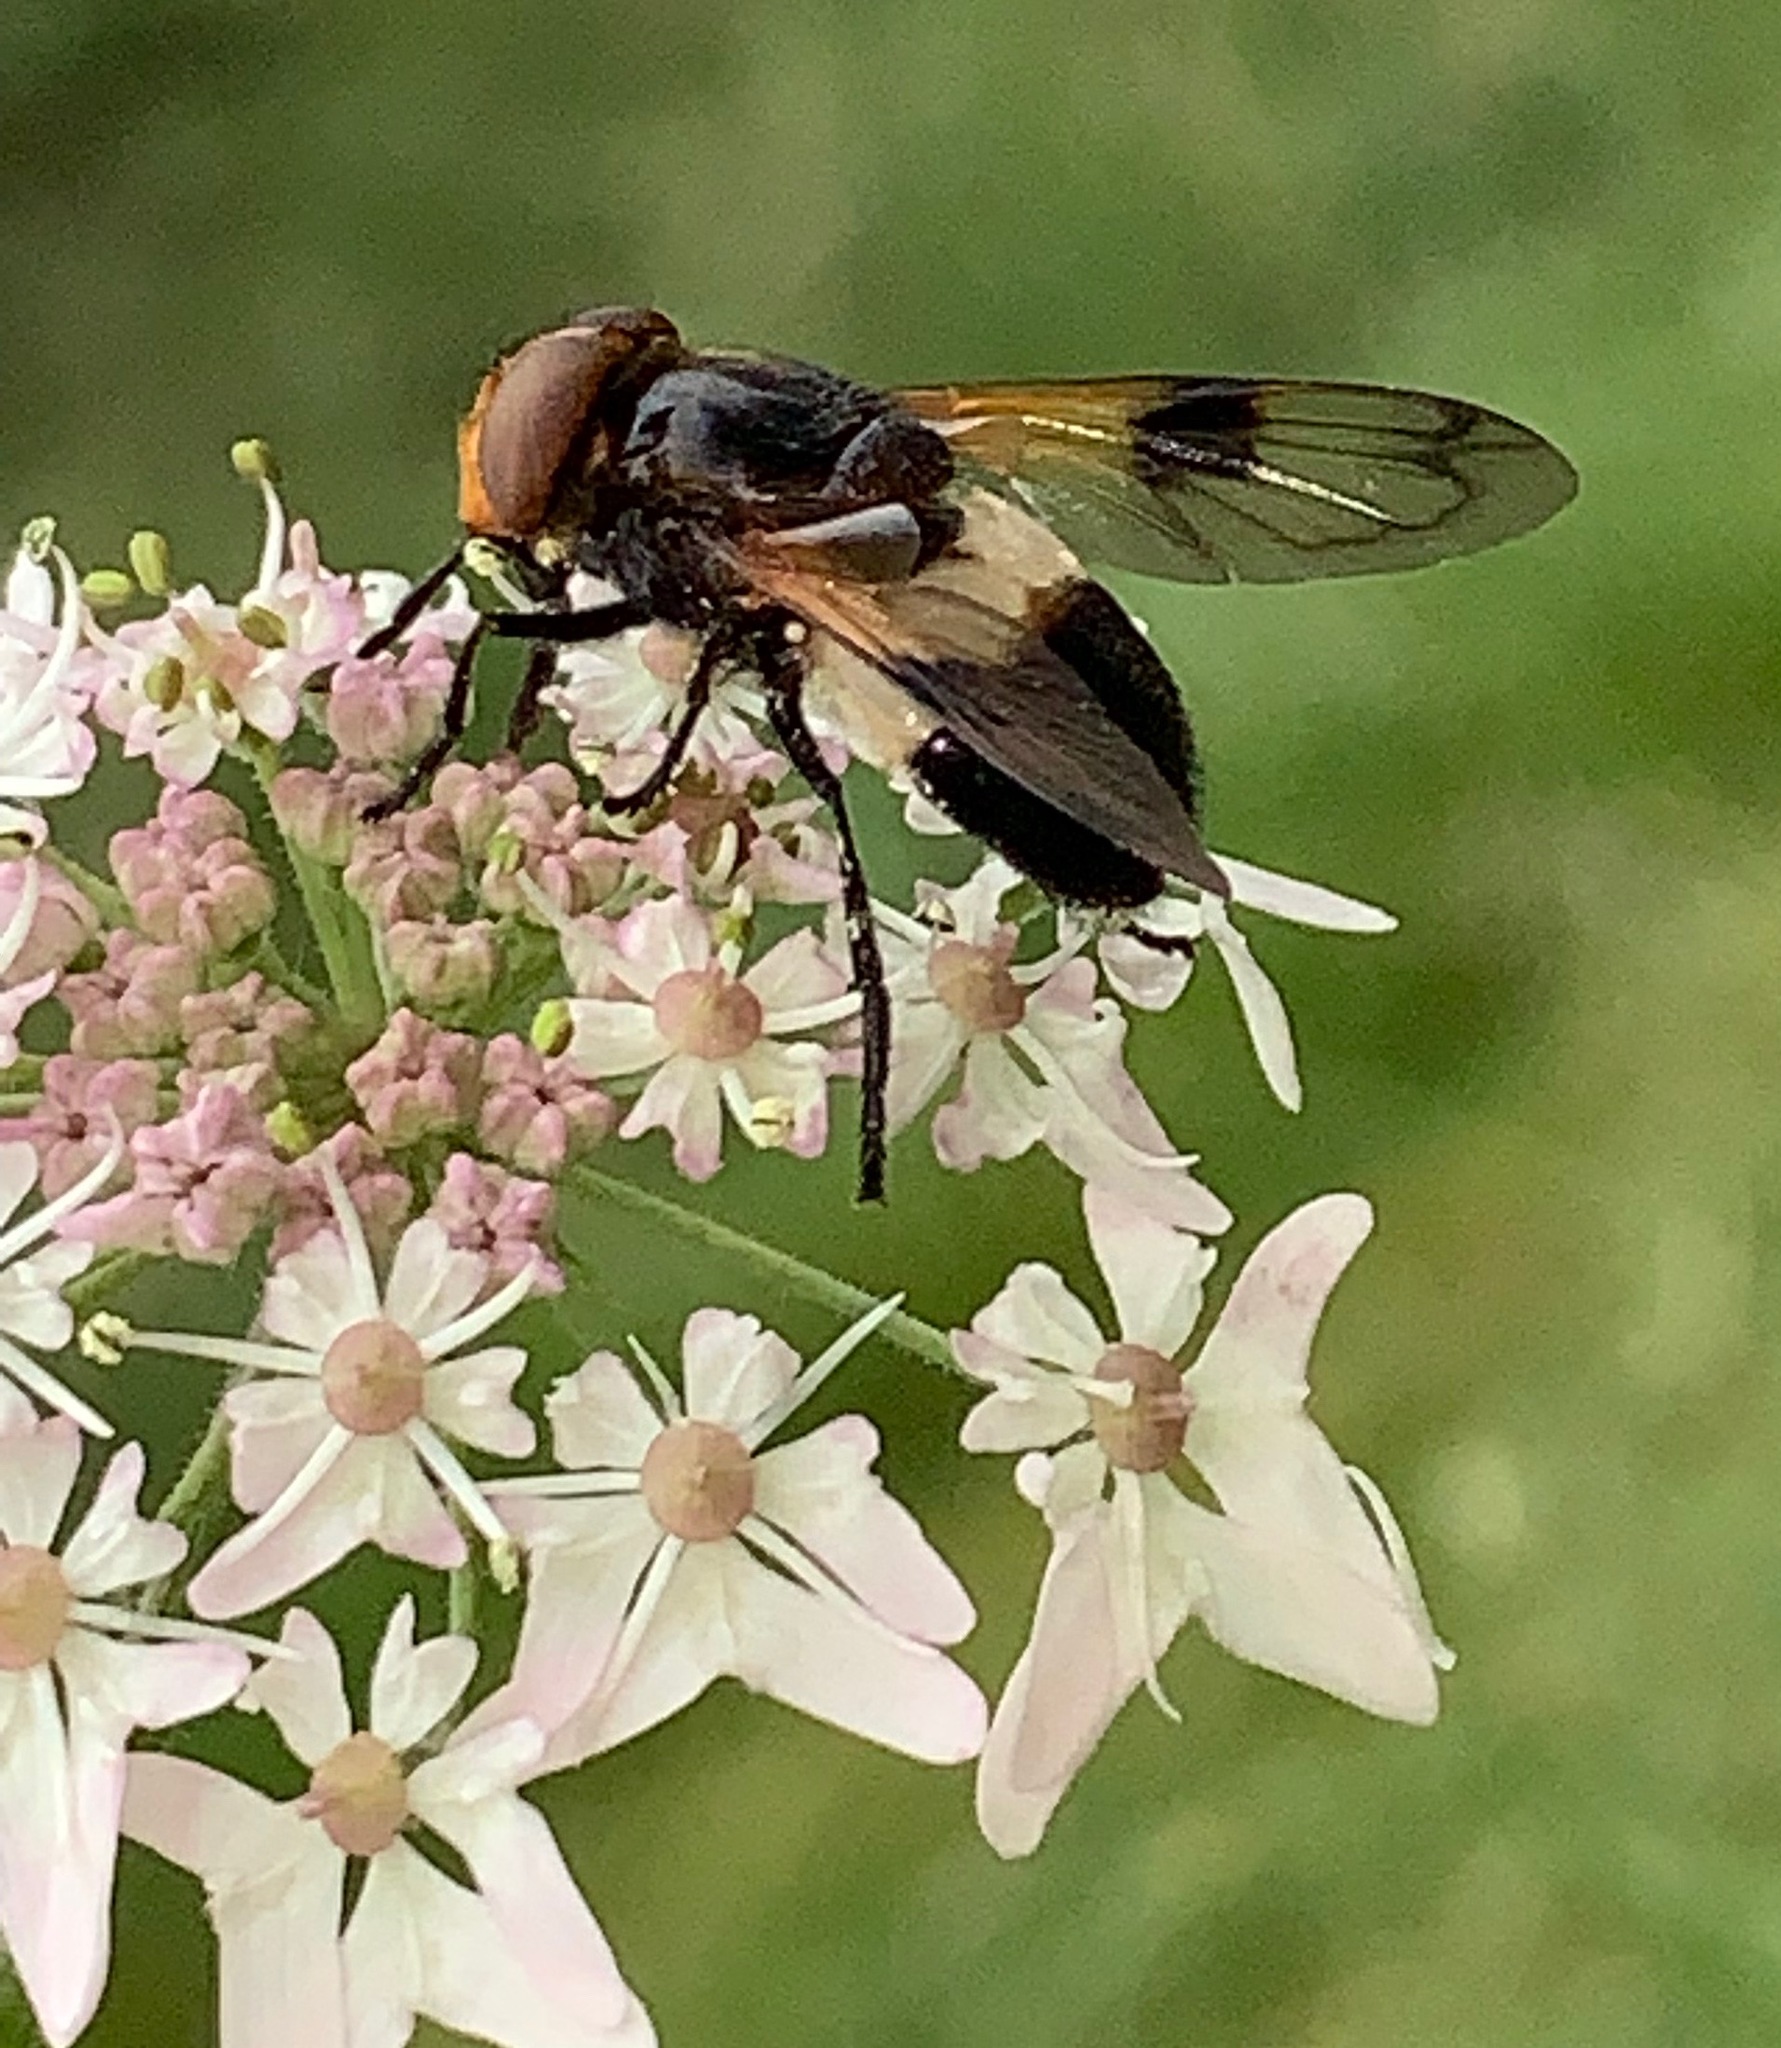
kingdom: Animalia
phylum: Arthropoda
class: Insecta
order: Diptera
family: Syrphidae
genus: Volucella
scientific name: Volucella pellucens
